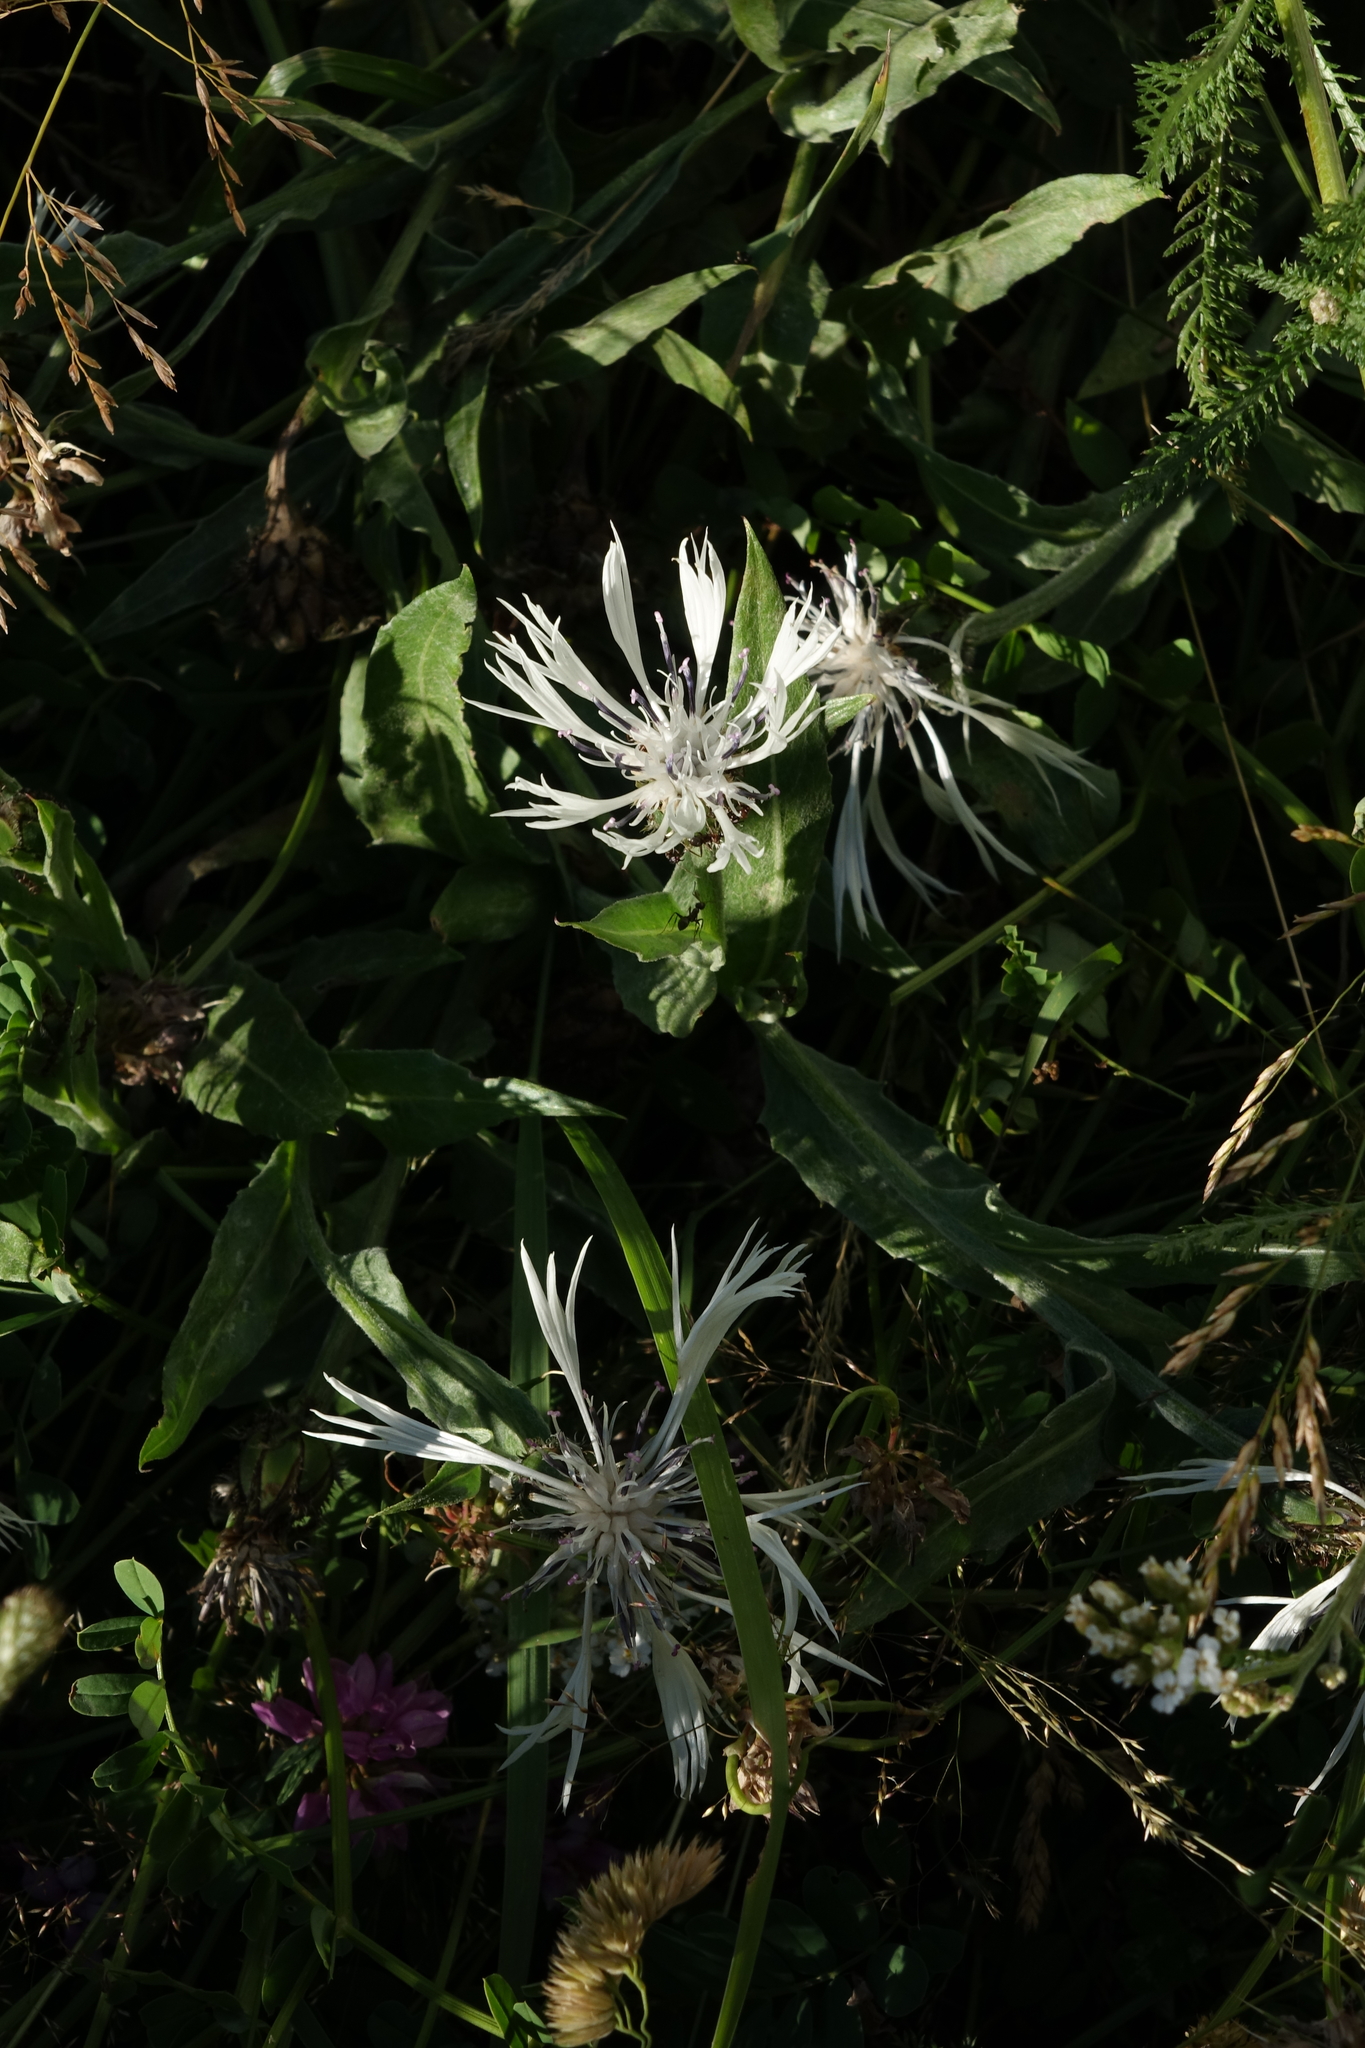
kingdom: Plantae
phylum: Tracheophyta
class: Magnoliopsida
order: Asterales
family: Asteraceae
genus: Centaurea
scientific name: Centaurea cheiranthifolia
